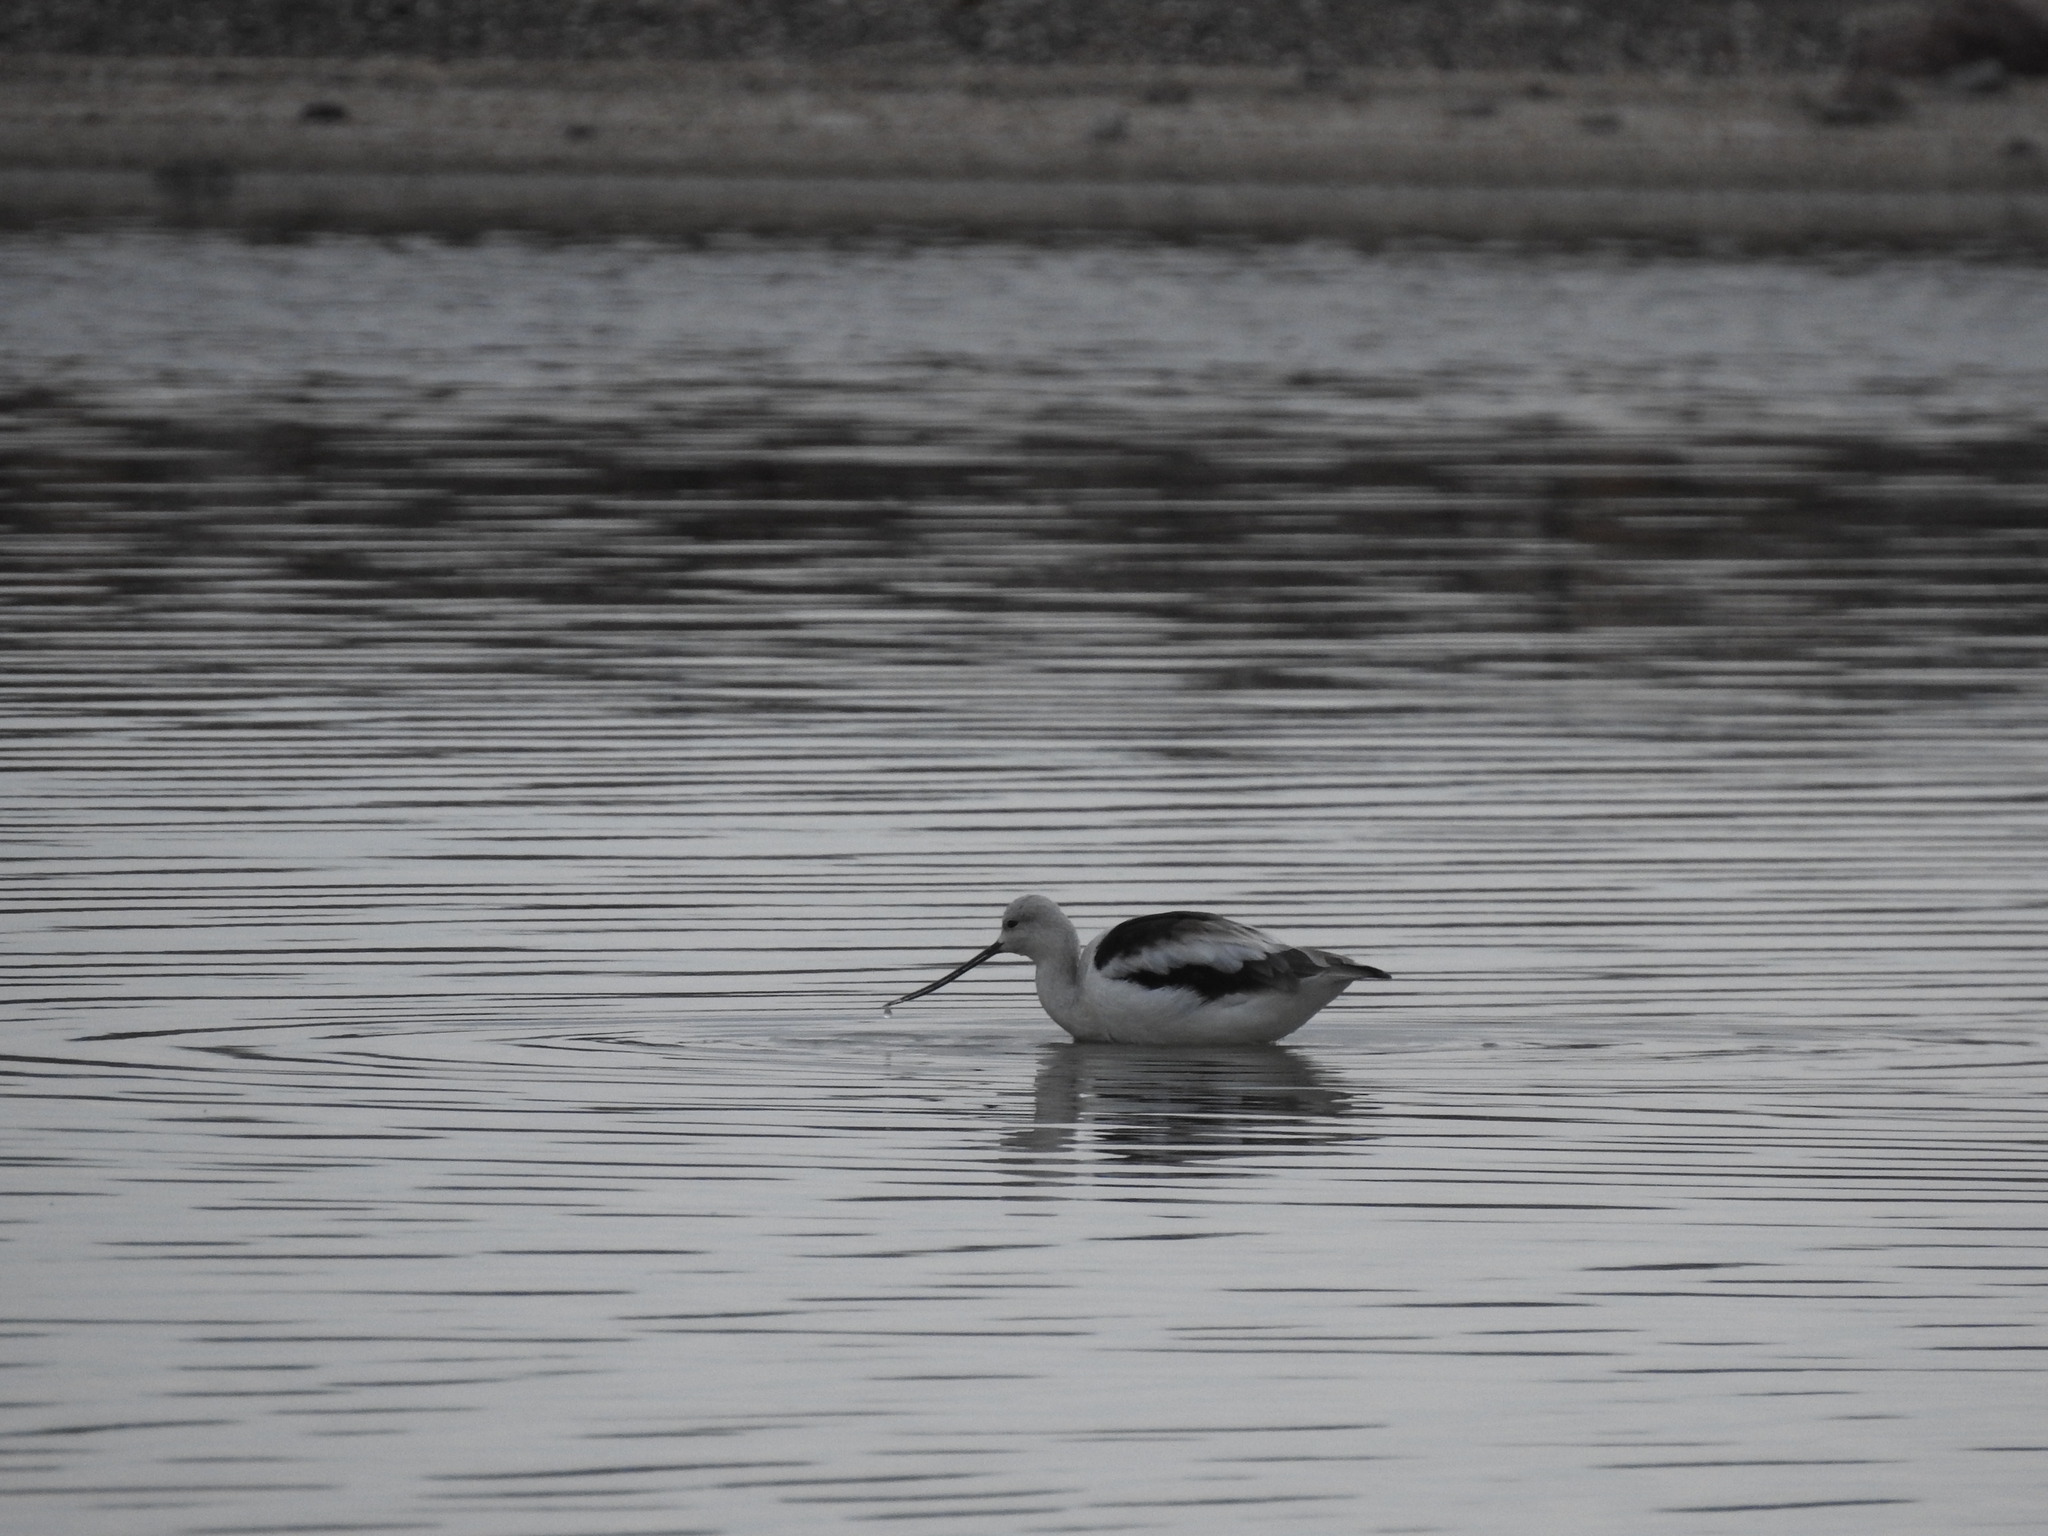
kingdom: Animalia
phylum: Chordata
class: Aves
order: Charadriiformes
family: Recurvirostridae
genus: Recurvirostra
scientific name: Recurvirostra americana
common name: American avocet
